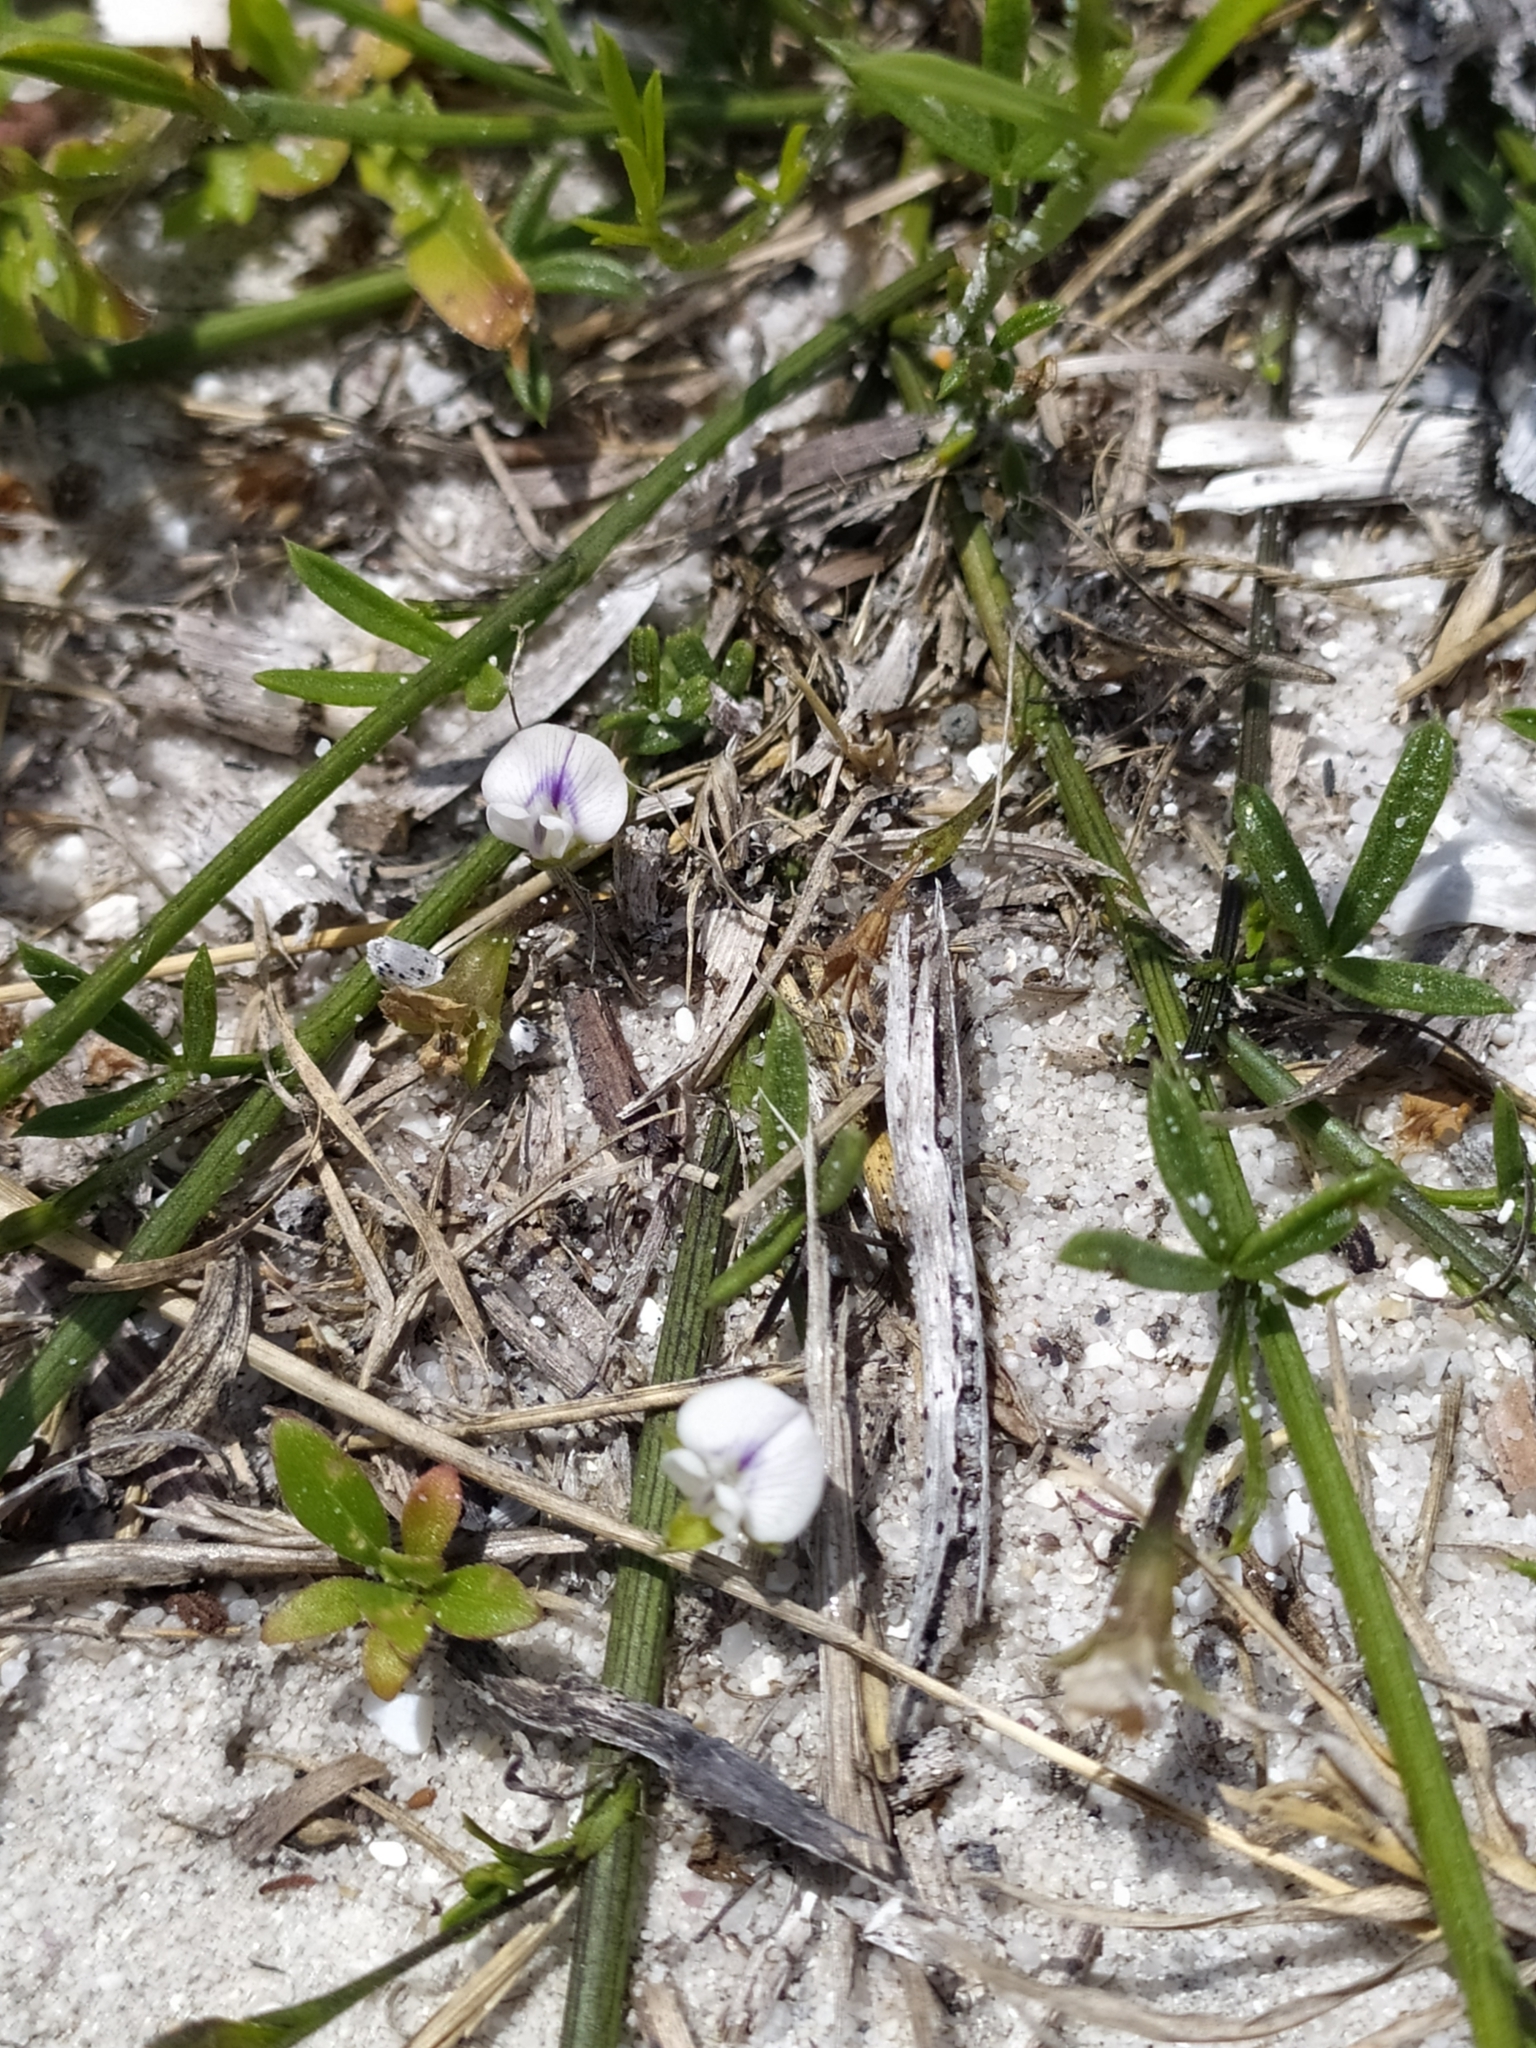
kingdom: Plantae
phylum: Tracheophyta
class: Magnoliopsida
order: Fabales
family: Fabaceae
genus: Psoralea
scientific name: Psoralea glaucina
